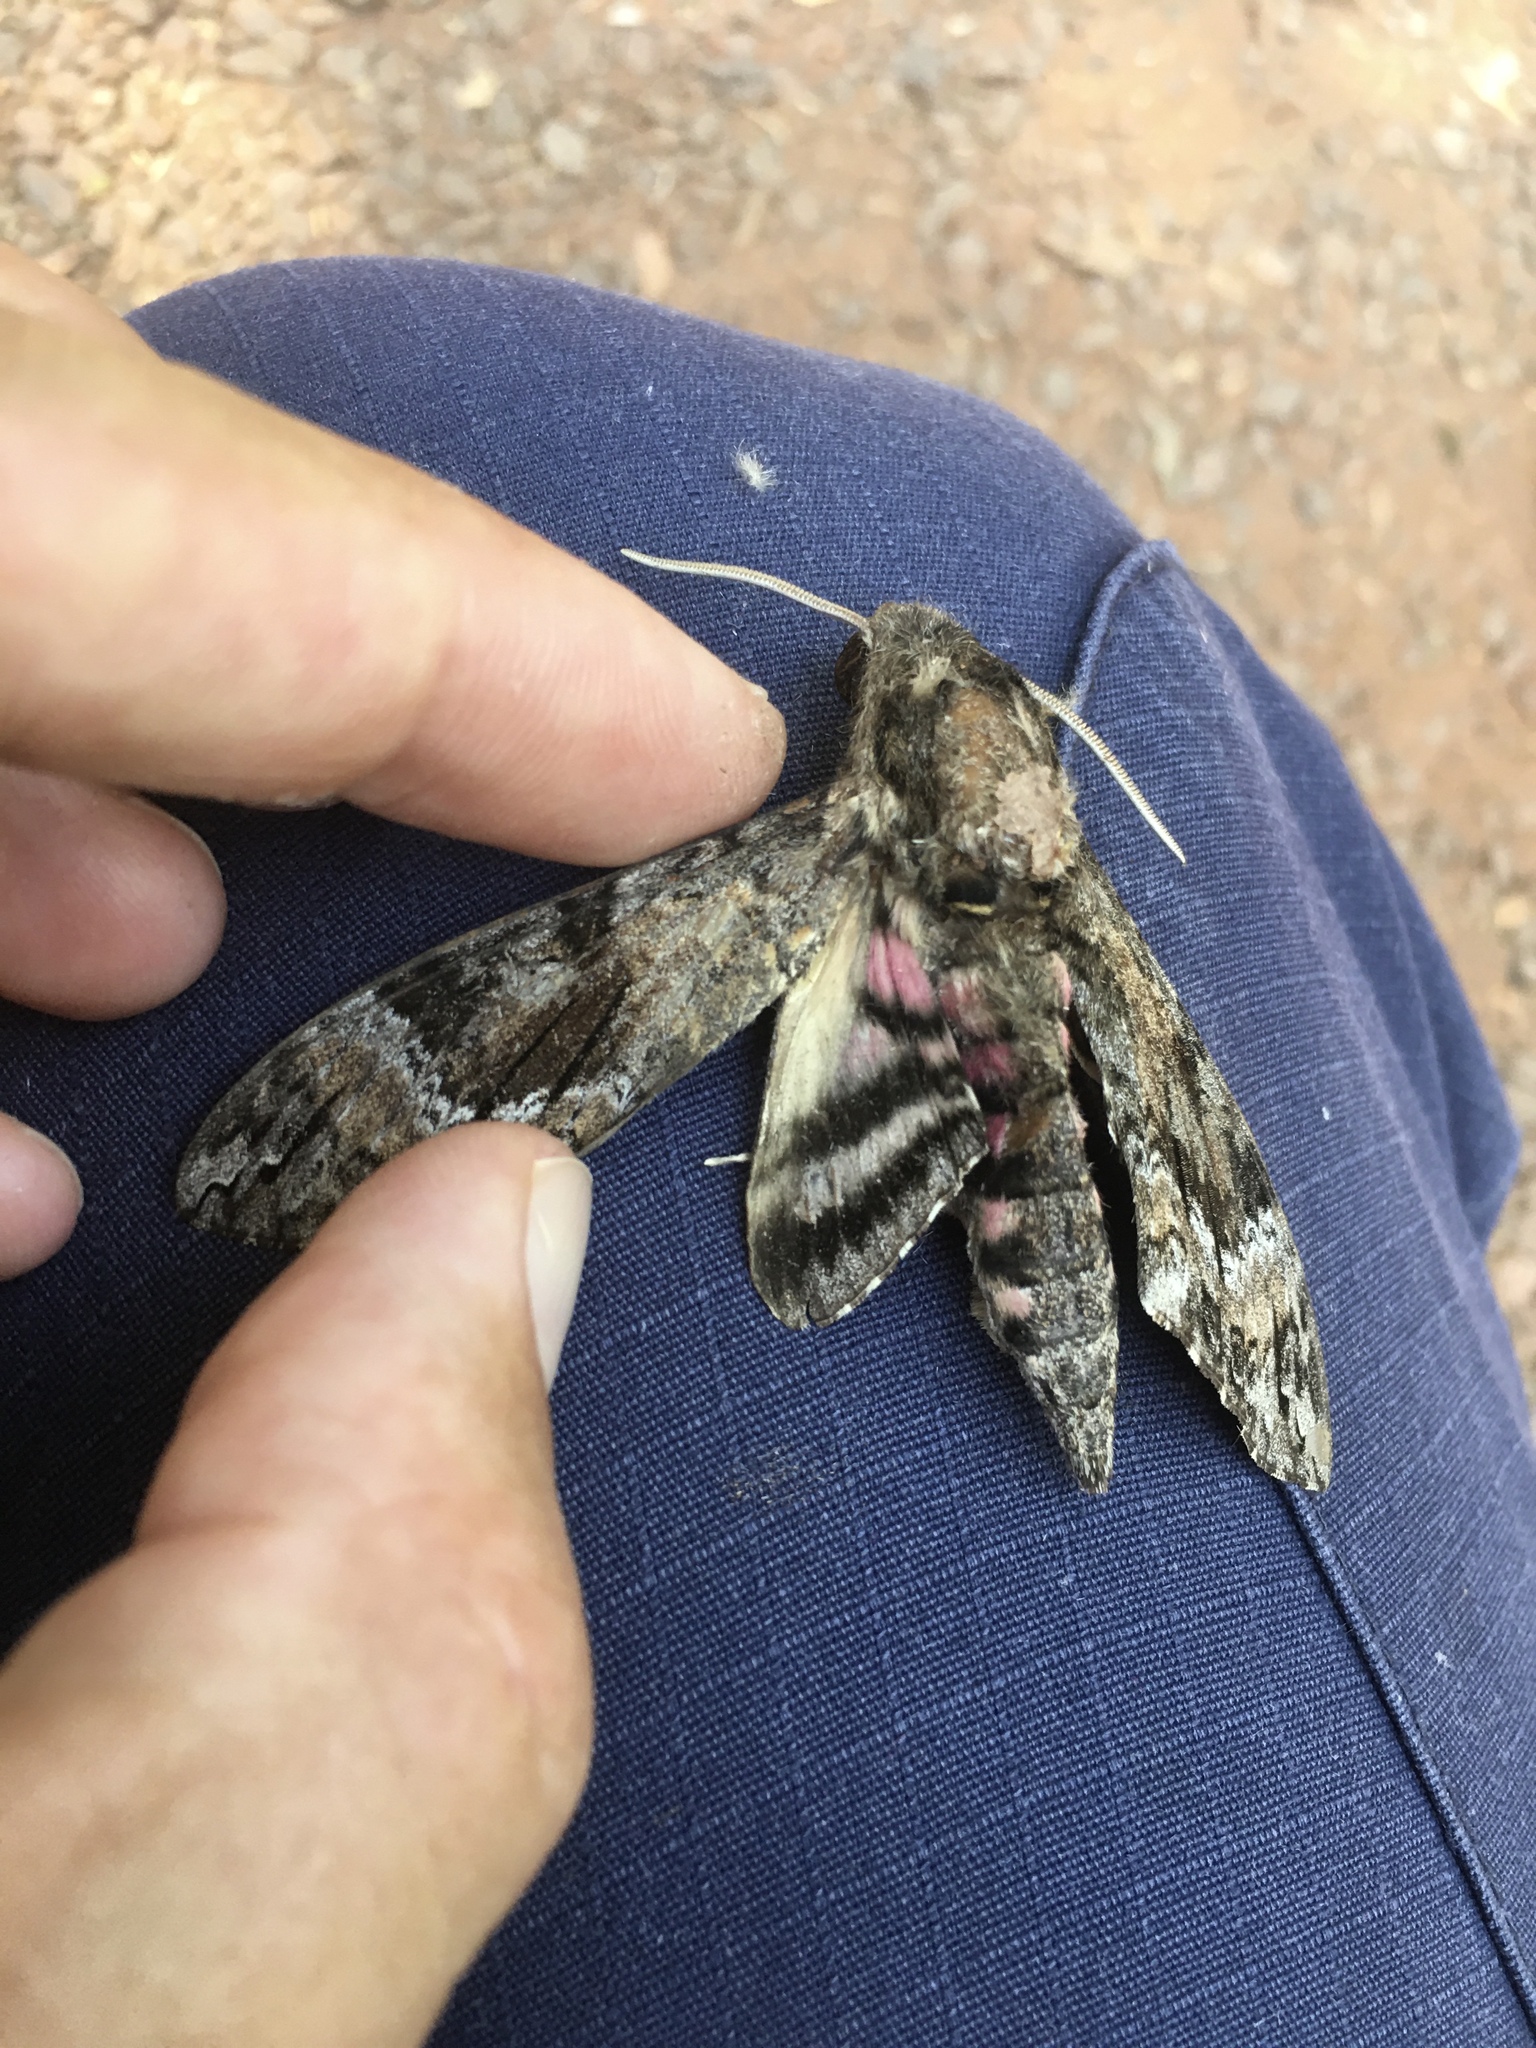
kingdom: Animalia
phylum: Arthropoda
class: Insecta
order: Lepidoptera
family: Sphingidae
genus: Agrius
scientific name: Agrius cingulata
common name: Pink-spotted hawkmoth
